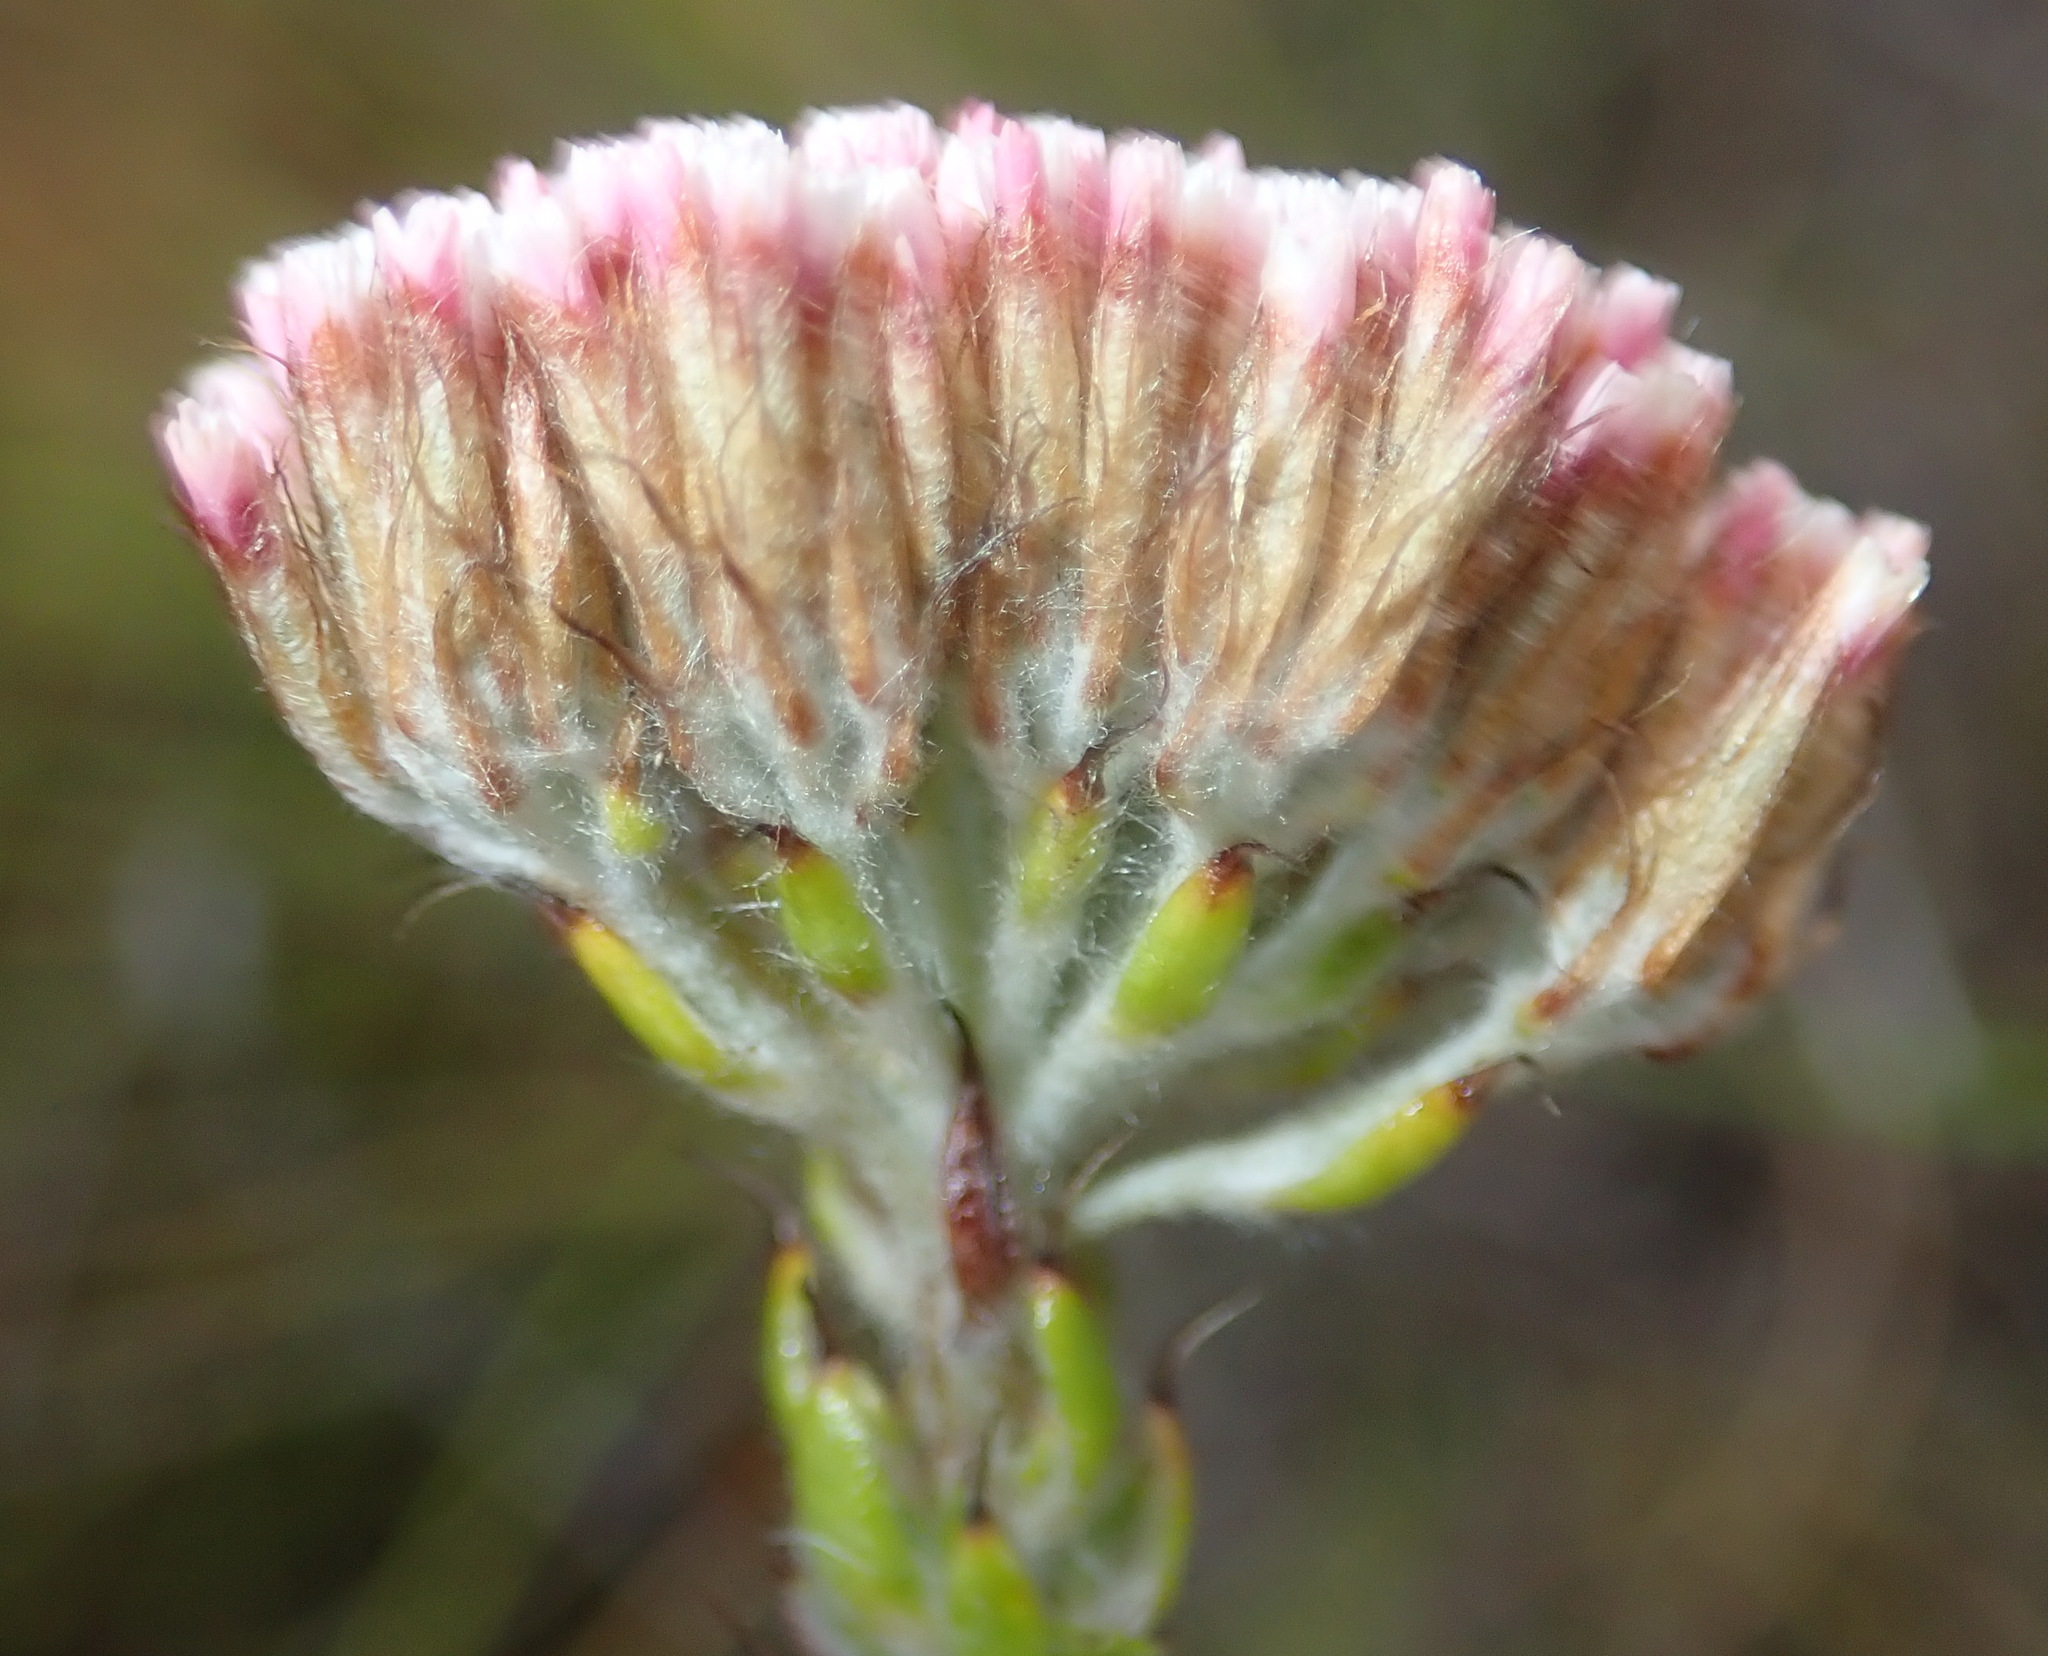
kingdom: Plantae
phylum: Tracheophyta
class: Magnoliopsida
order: Asterales
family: Asteraceae
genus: Metalasia
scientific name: Metalasia pungens
